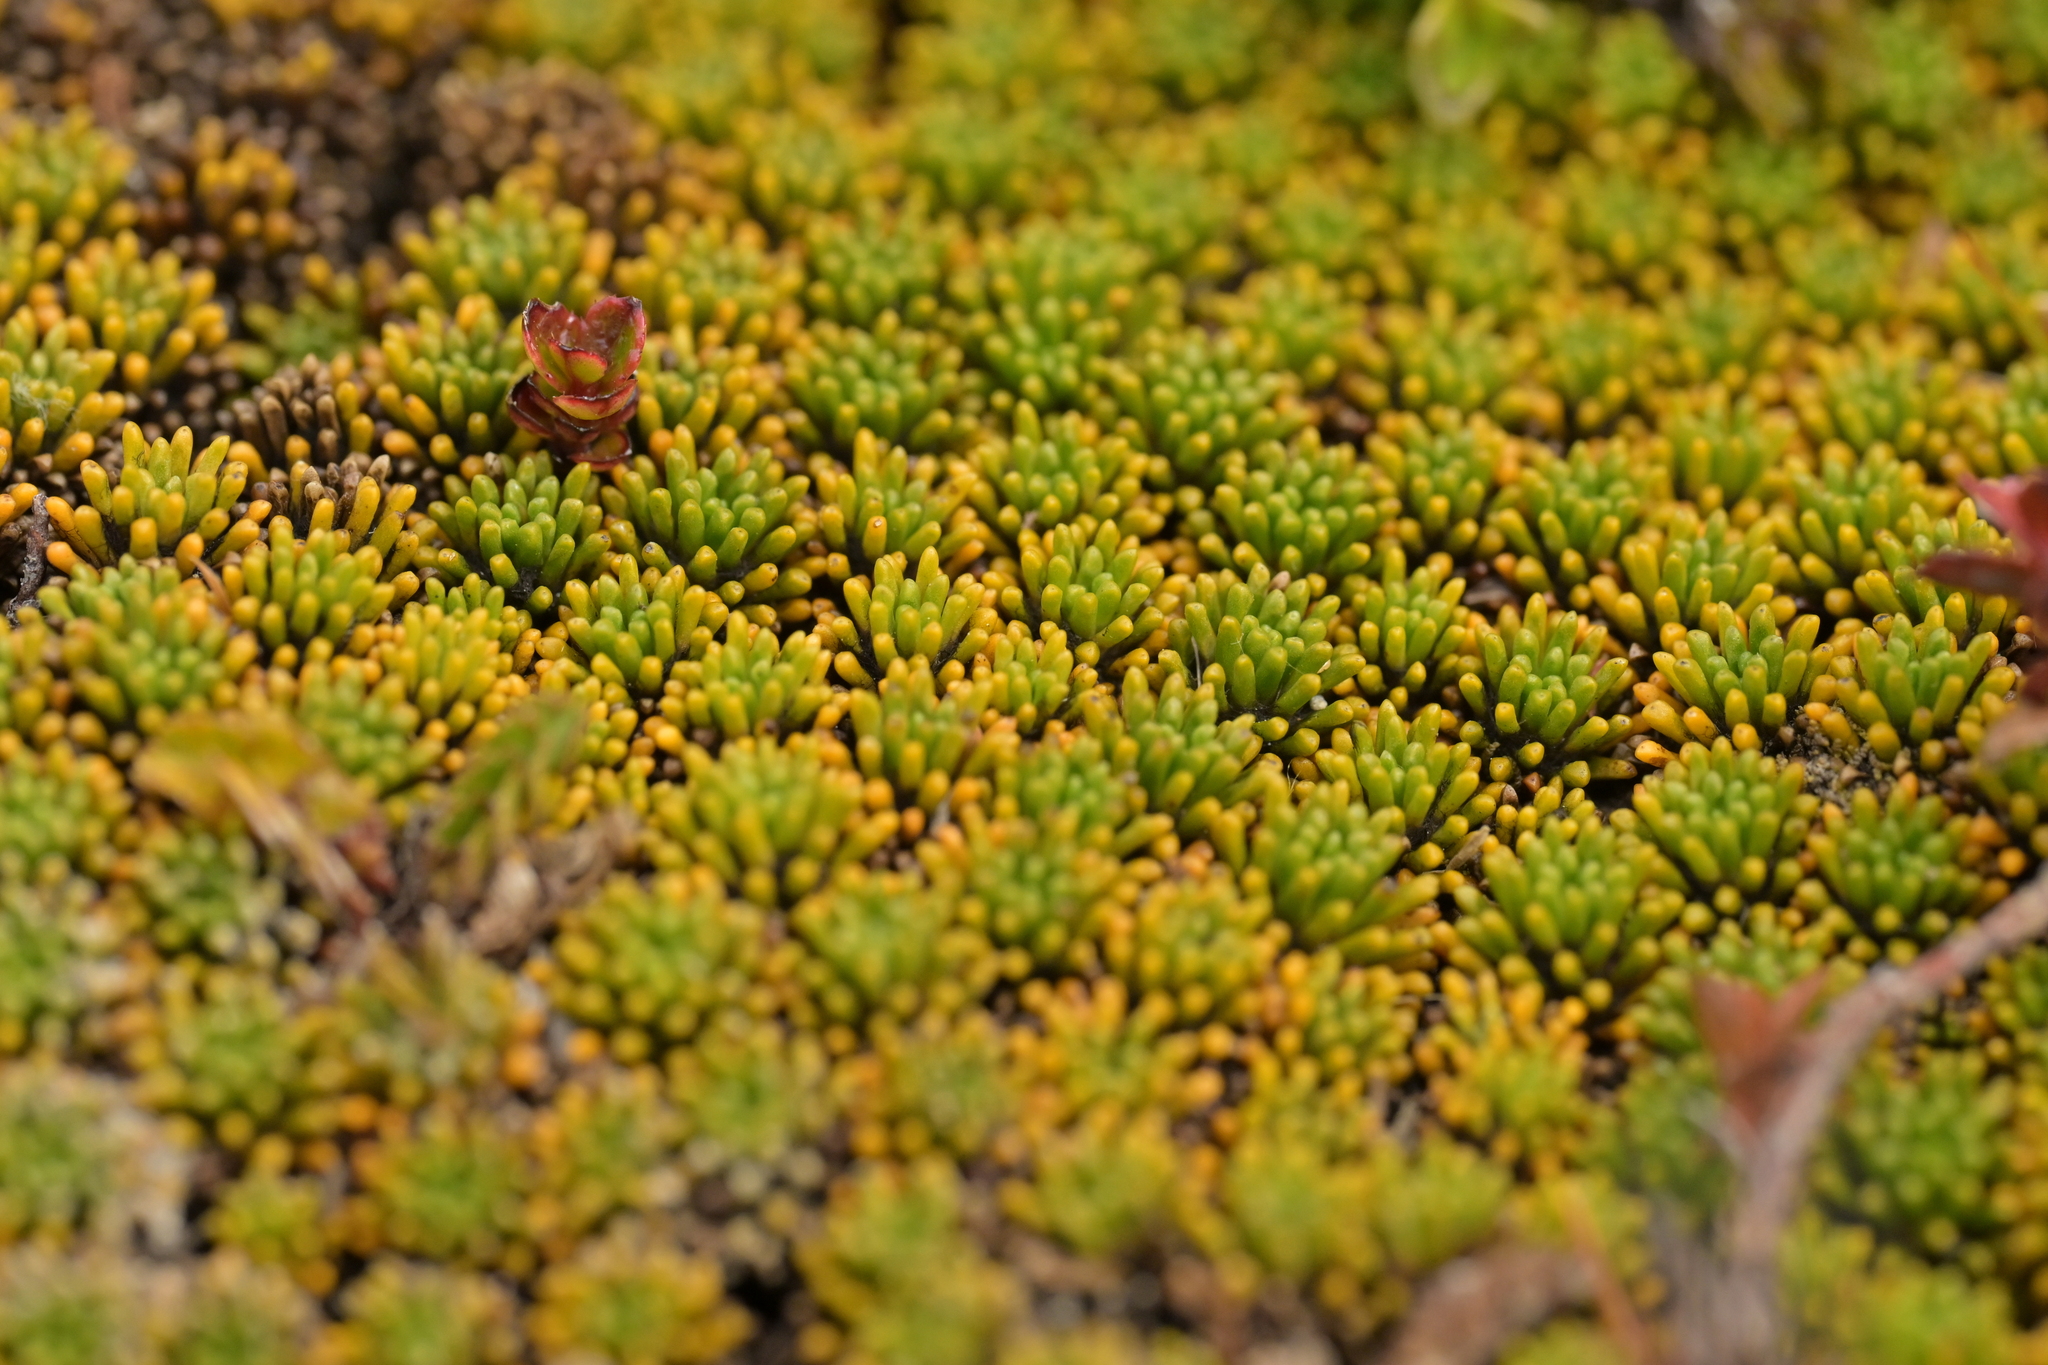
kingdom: Plantae
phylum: Tracheophyta
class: Magnoliopsida
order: Asterales
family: Stylidiaceae
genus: Phyllachne
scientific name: Phyllachne colensoi
